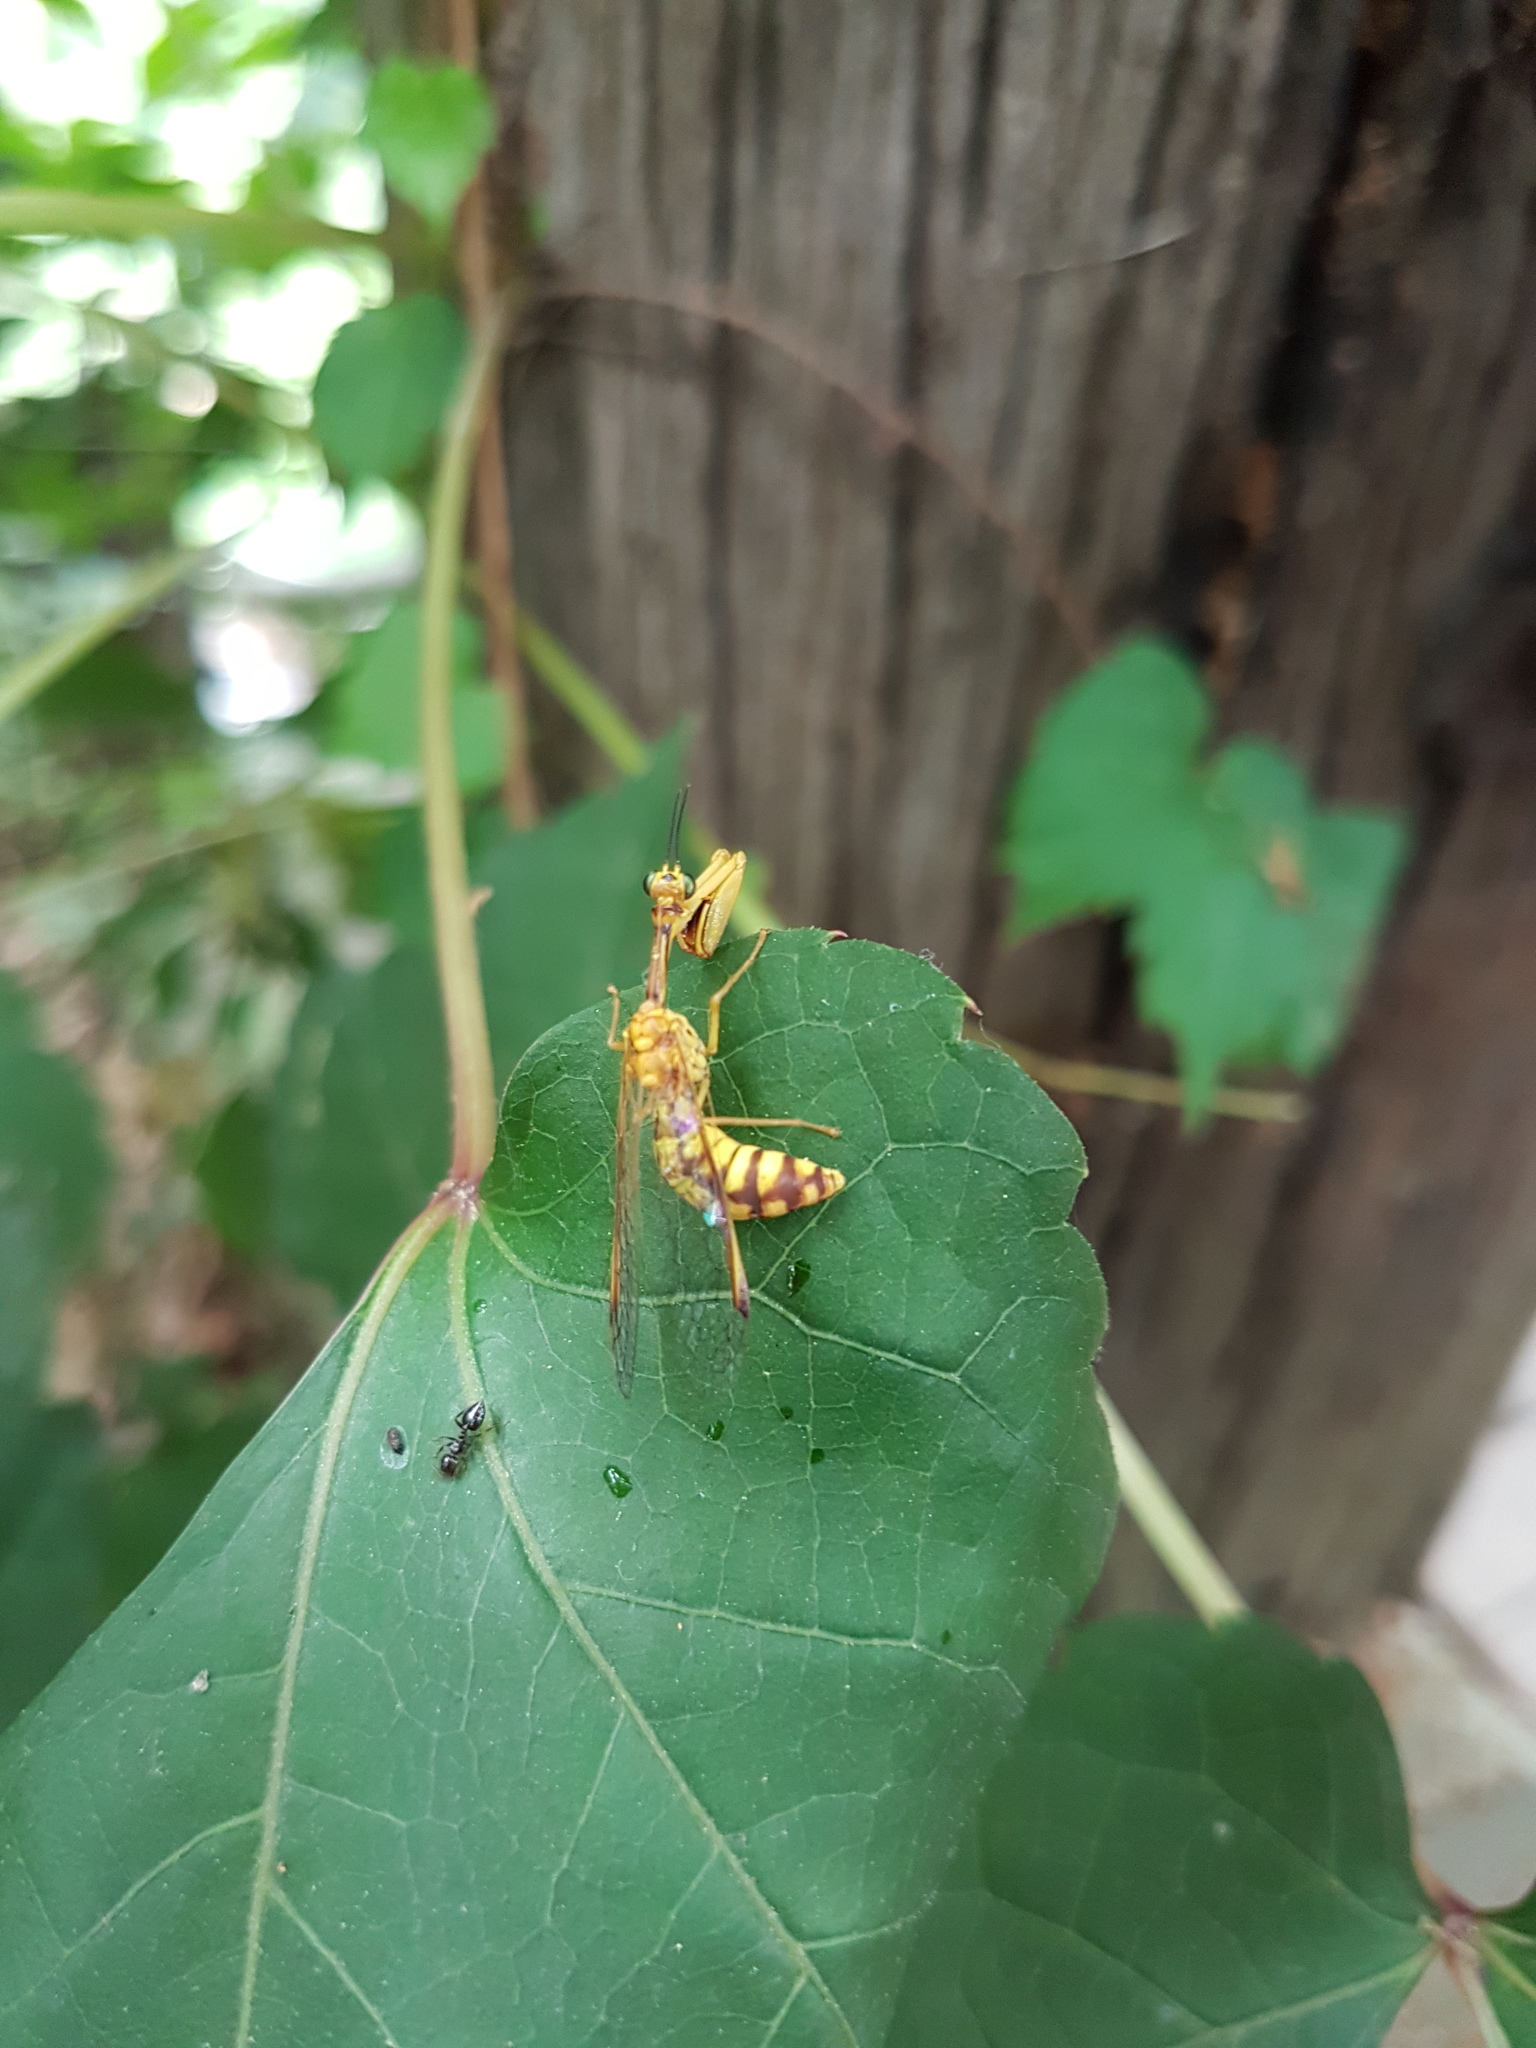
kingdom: Animalia
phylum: Arthropoda
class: Insecta
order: Neuroptera
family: Mantispidae
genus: Mantispa
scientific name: Mantispa japonica
